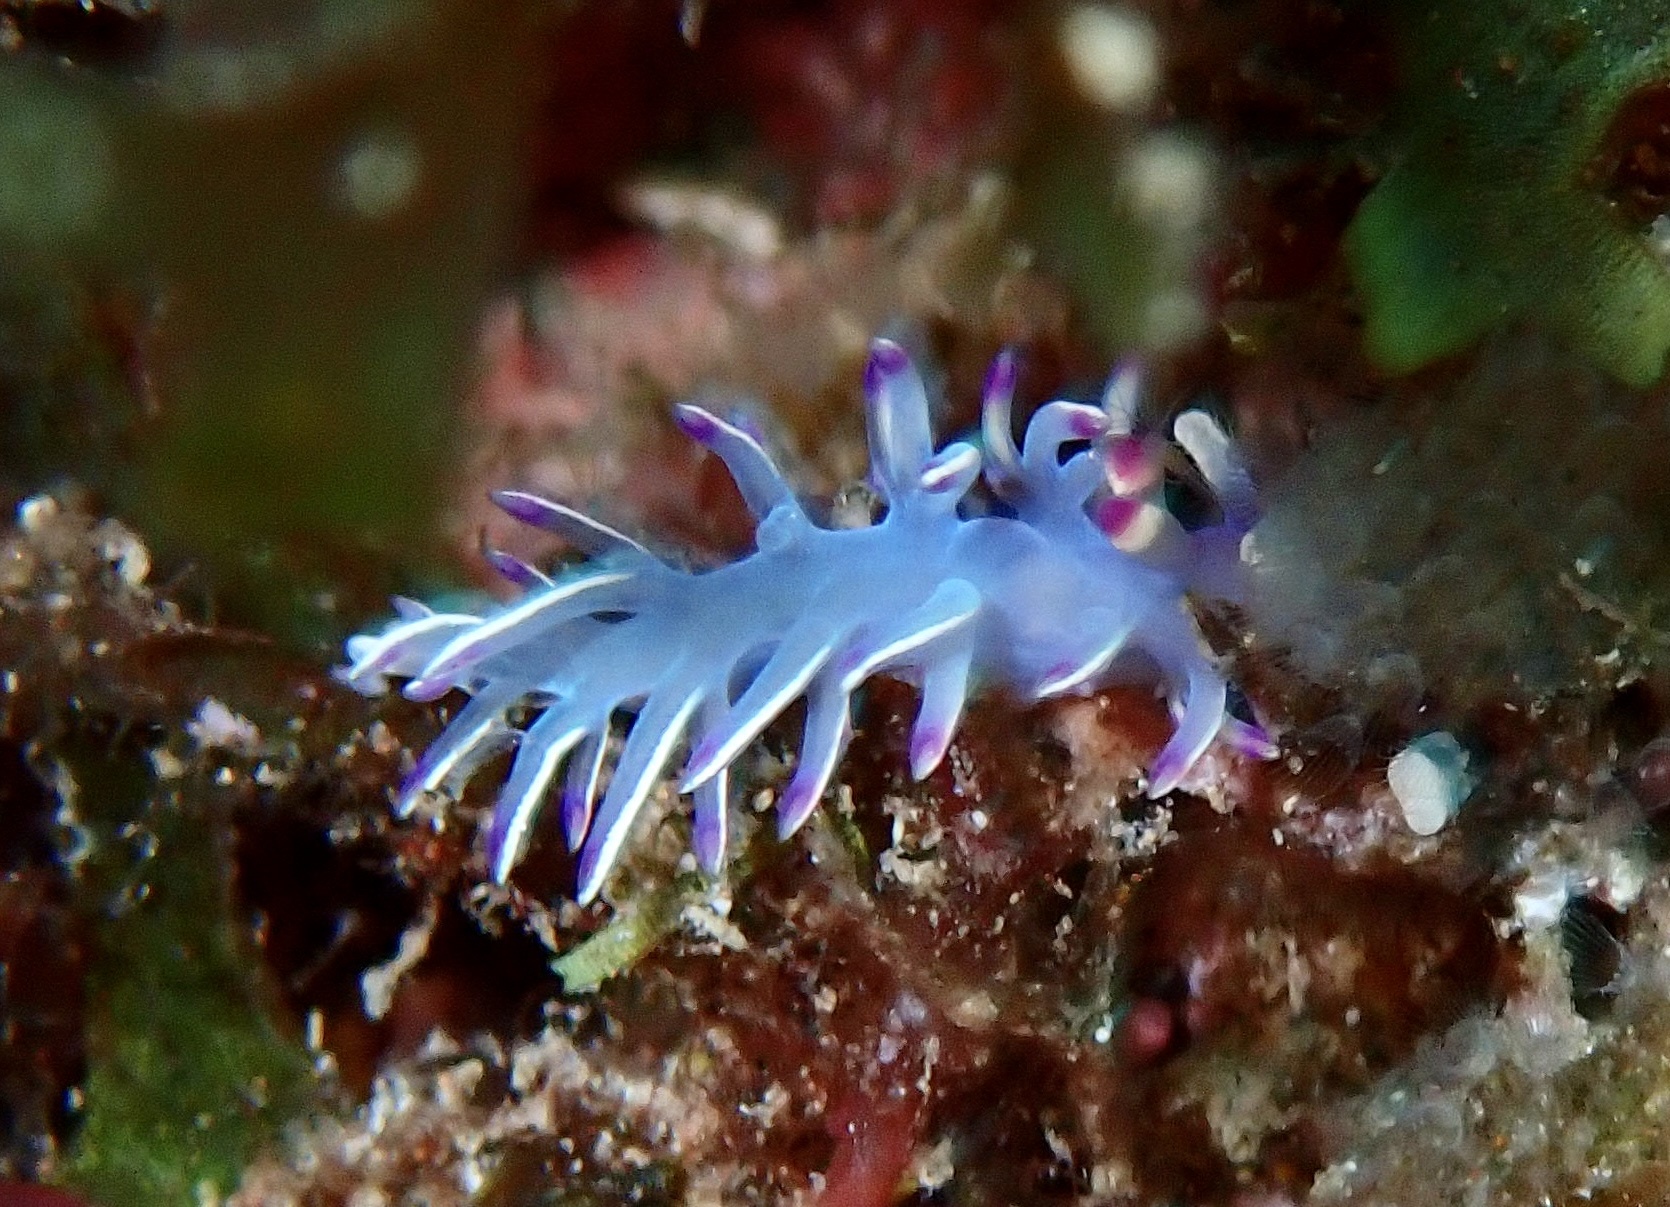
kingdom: Animalia
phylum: Mollusca
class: Gastropoda
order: Nudibranchia
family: Flabellinidae
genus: Flabellina
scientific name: Flabellina llerae
